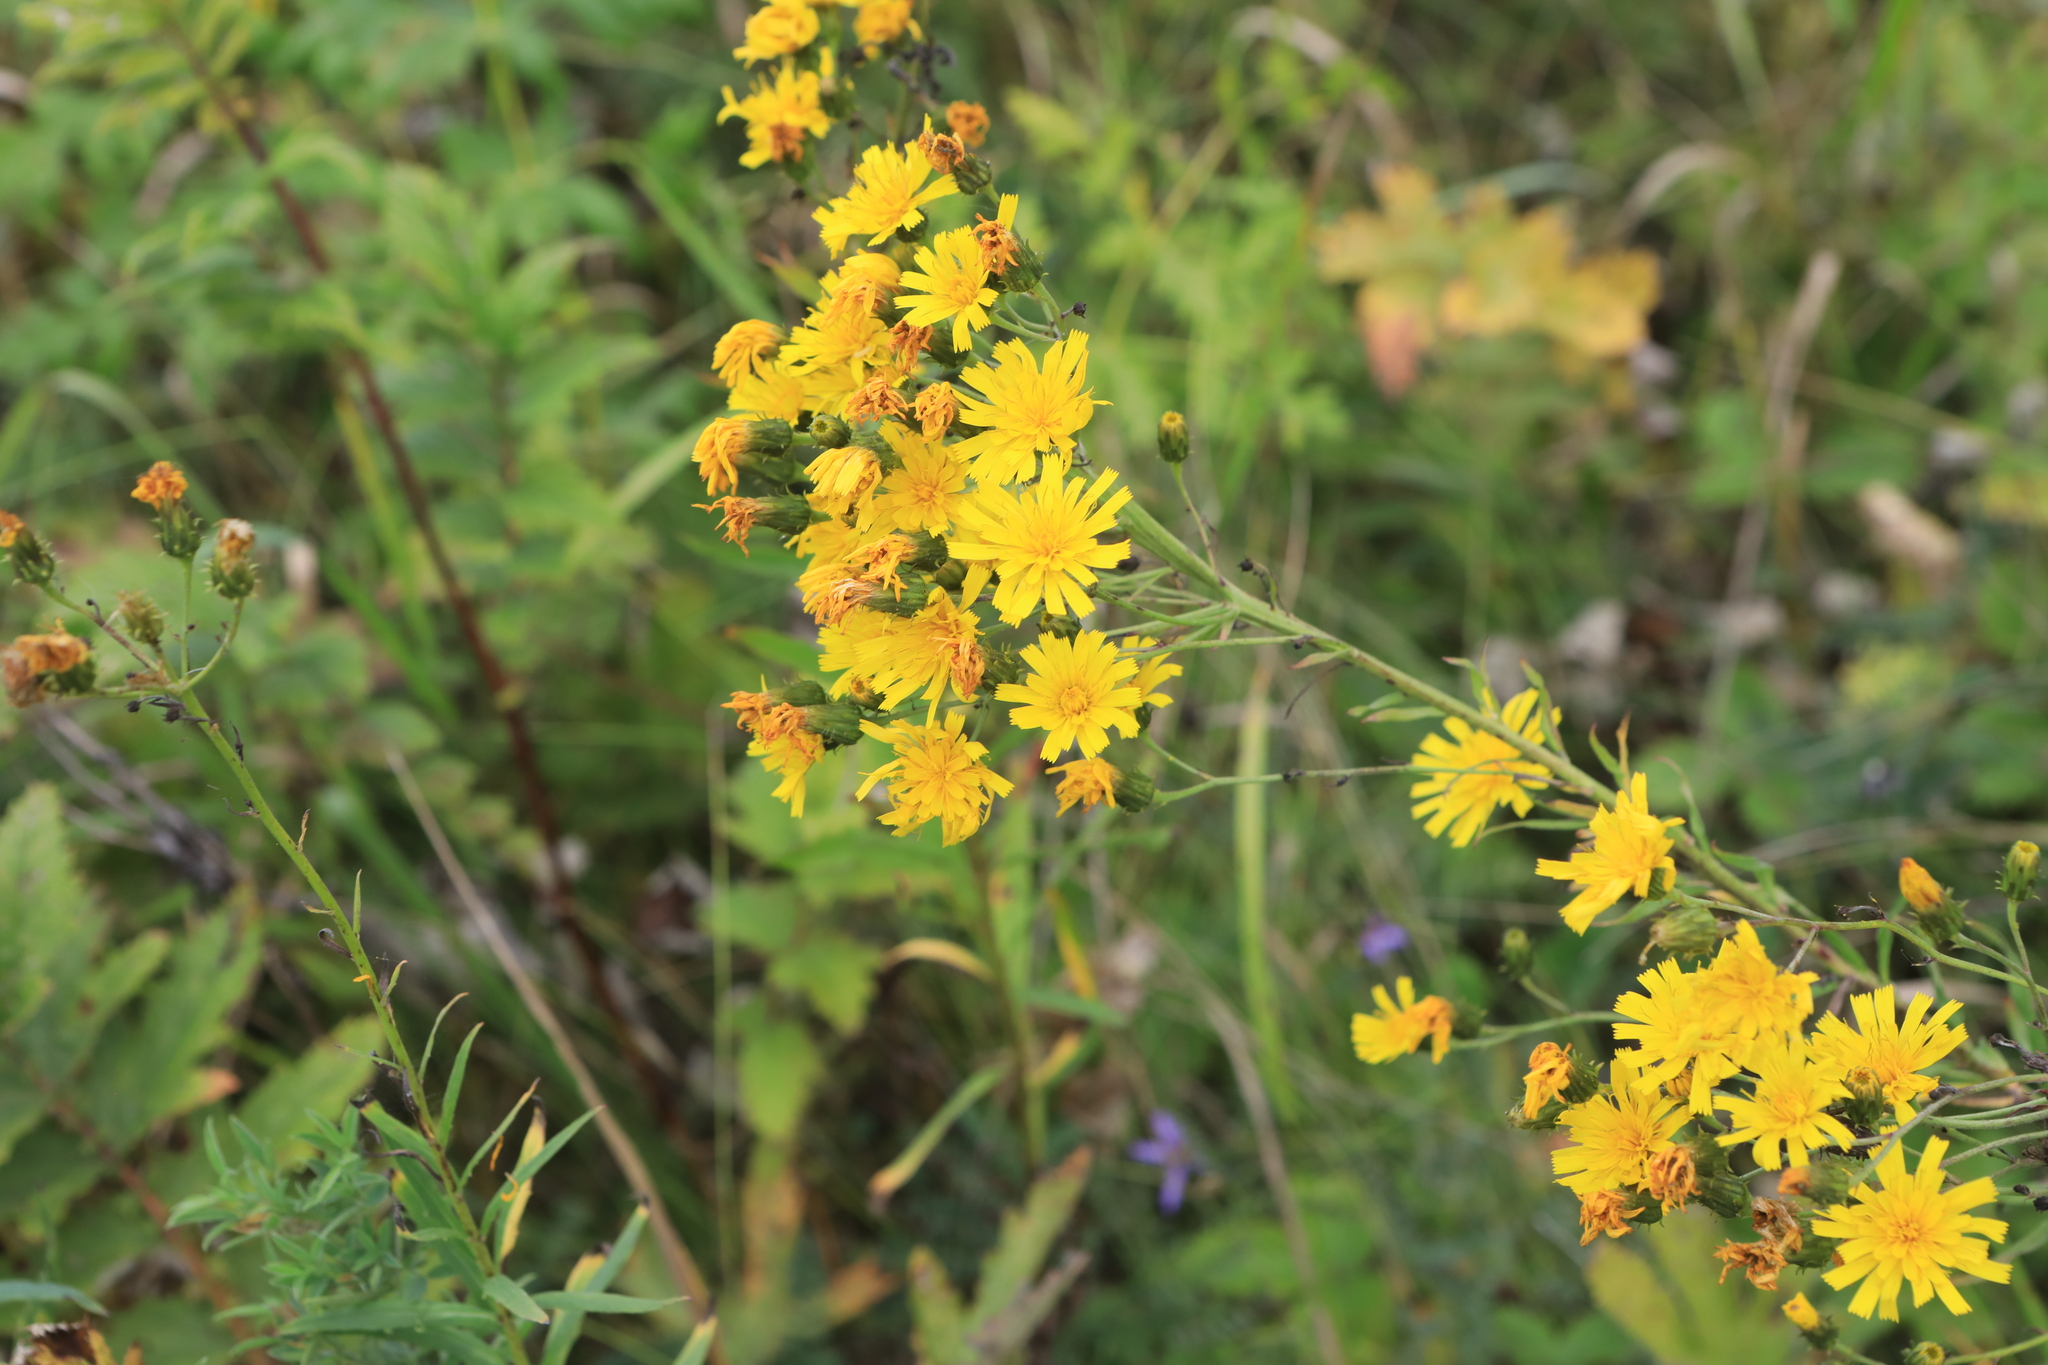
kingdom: Plantae
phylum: Tracheophyta
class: Magnoliopsida
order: Asterales
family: Asteraceae
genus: Hieracium
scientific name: Hieracium umbellatum
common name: Northern hawkweed
